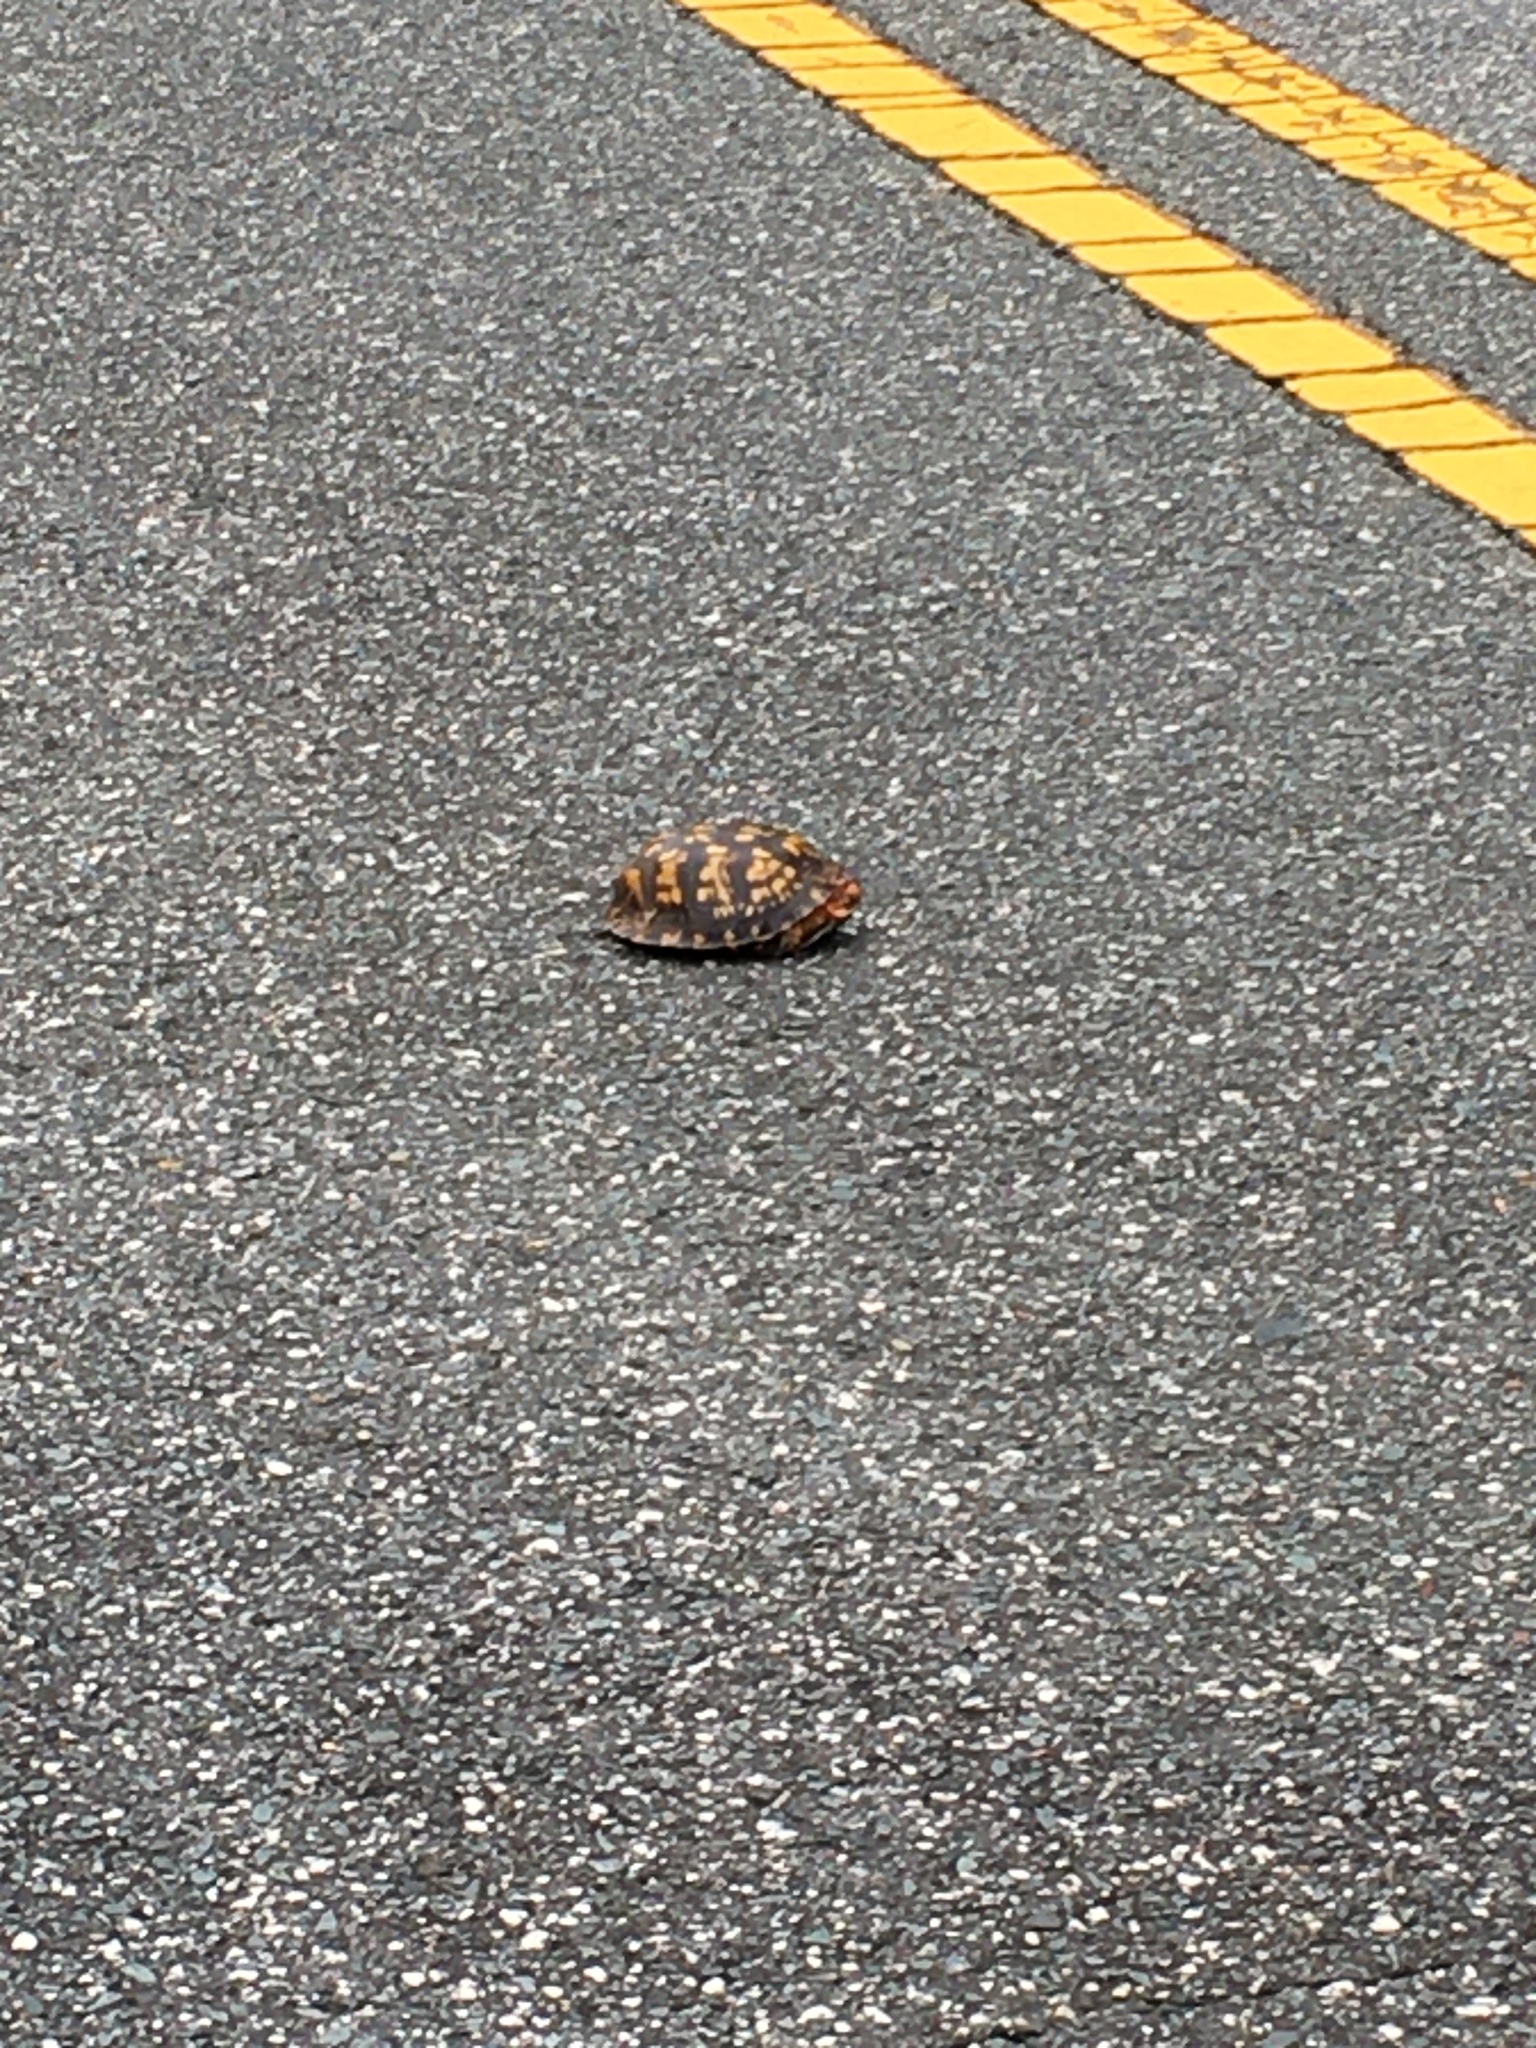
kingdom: Animalia
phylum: Chordata
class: Testudines
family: Emydidae
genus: Terrapene
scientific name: Terrapene carolina
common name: Common box turtle
